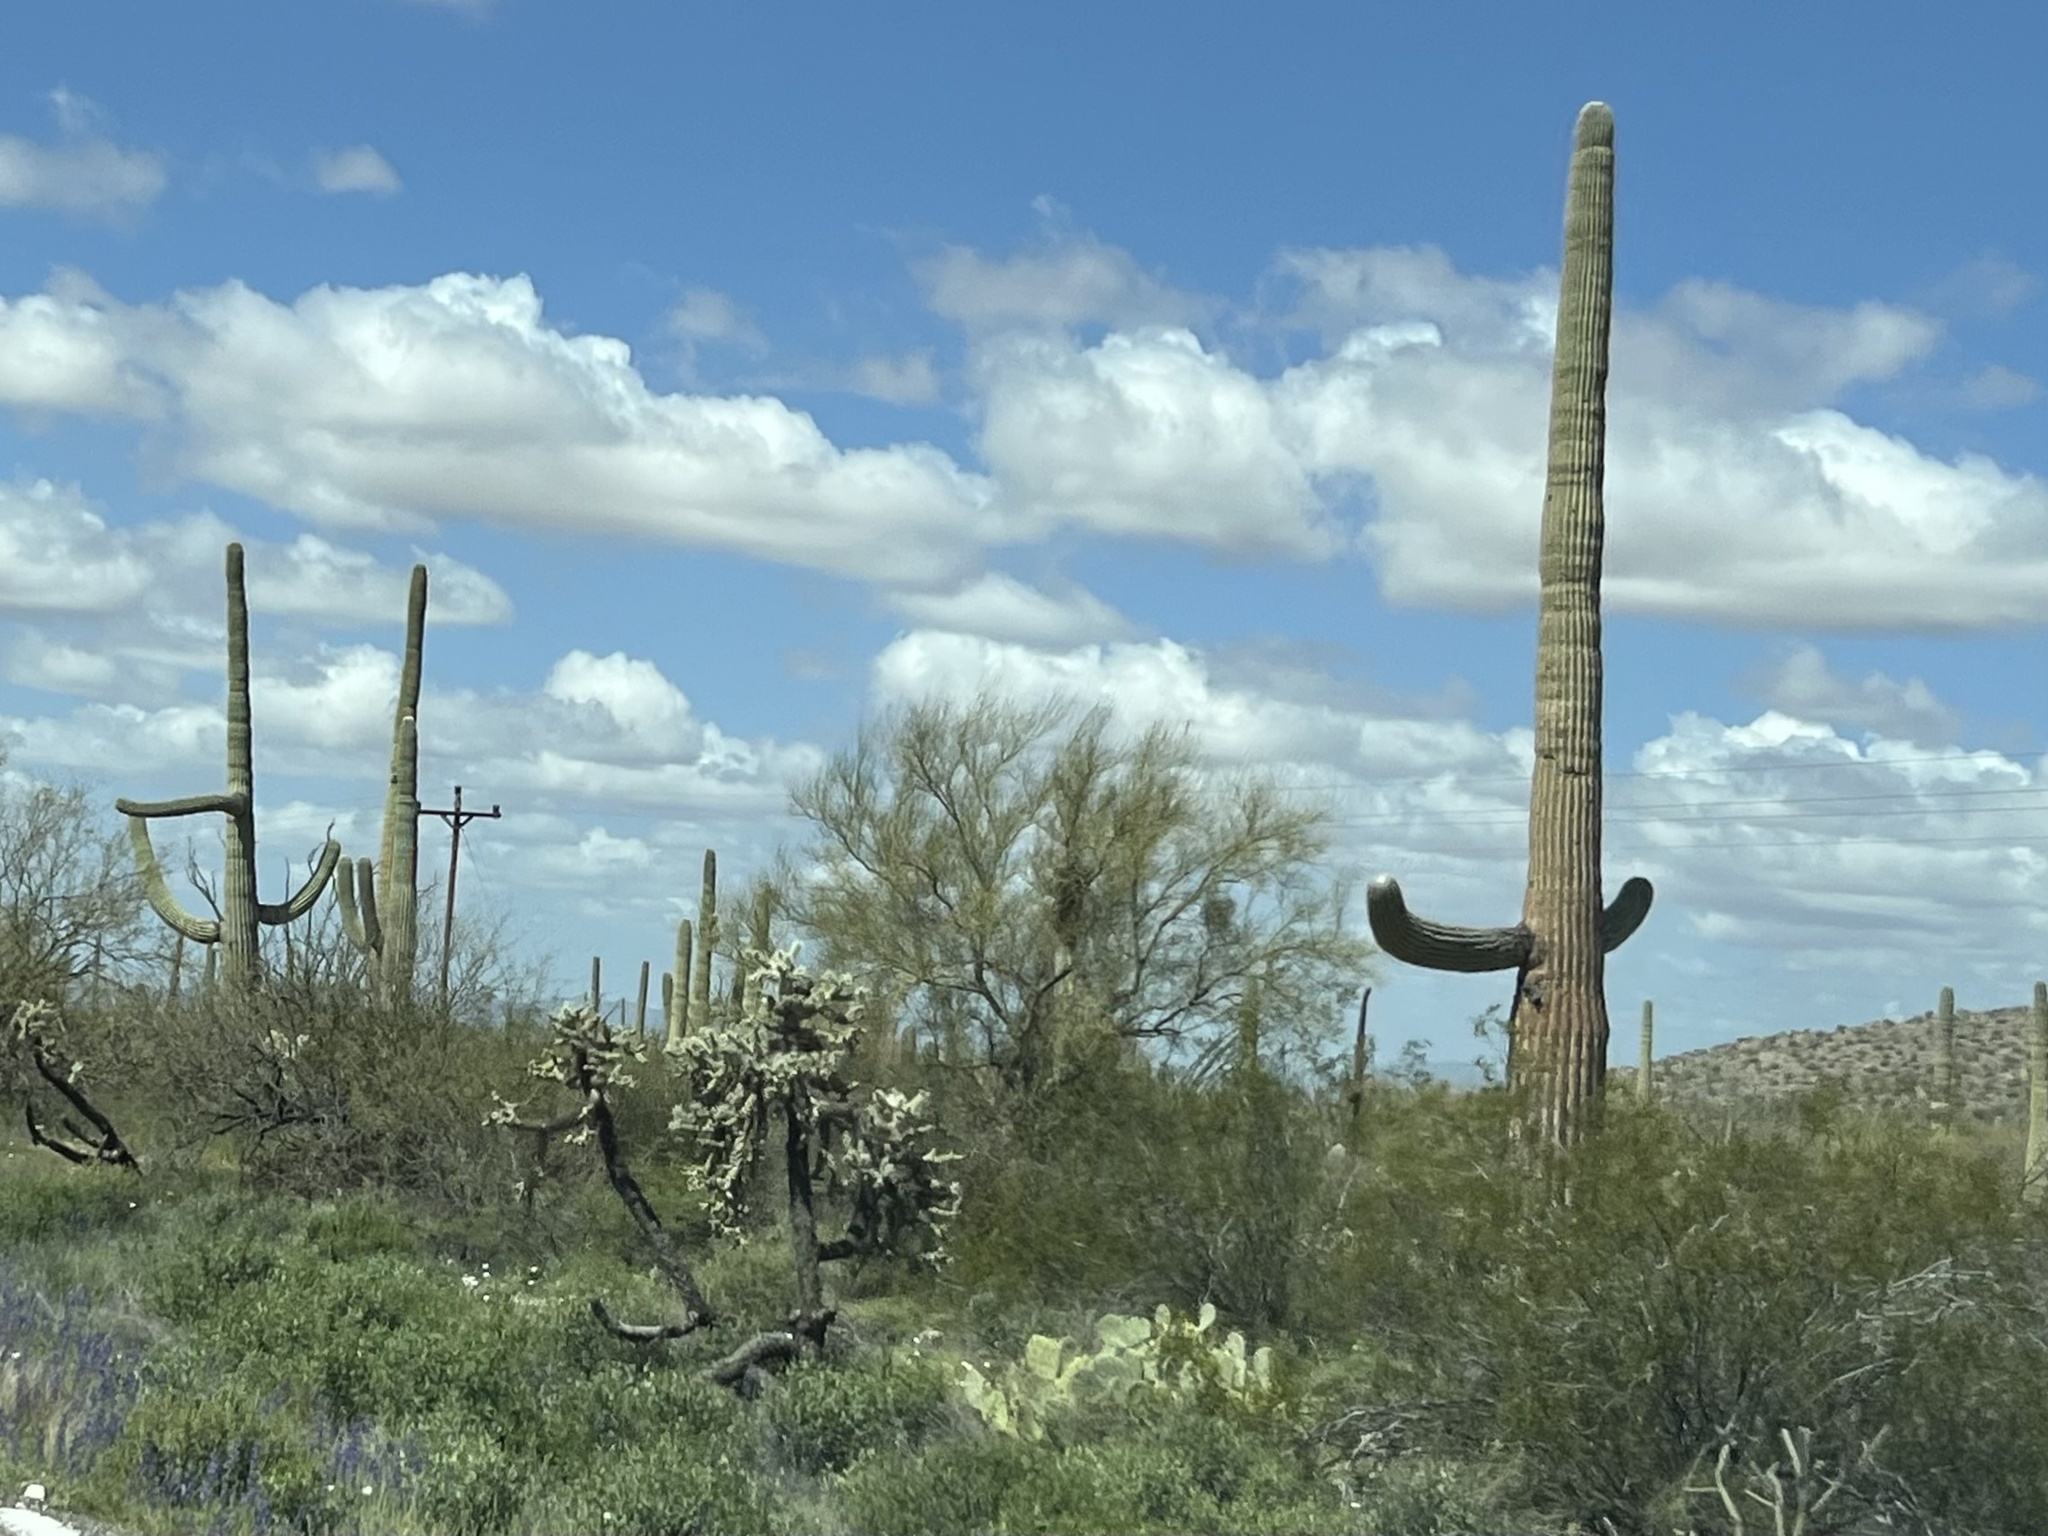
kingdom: Plantae
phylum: Tracheophyta
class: Magnoliopsida
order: Caryophyllales
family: Cactaceae
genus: Carnegiea
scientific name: Carnegiea gigantea
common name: Saguaro
